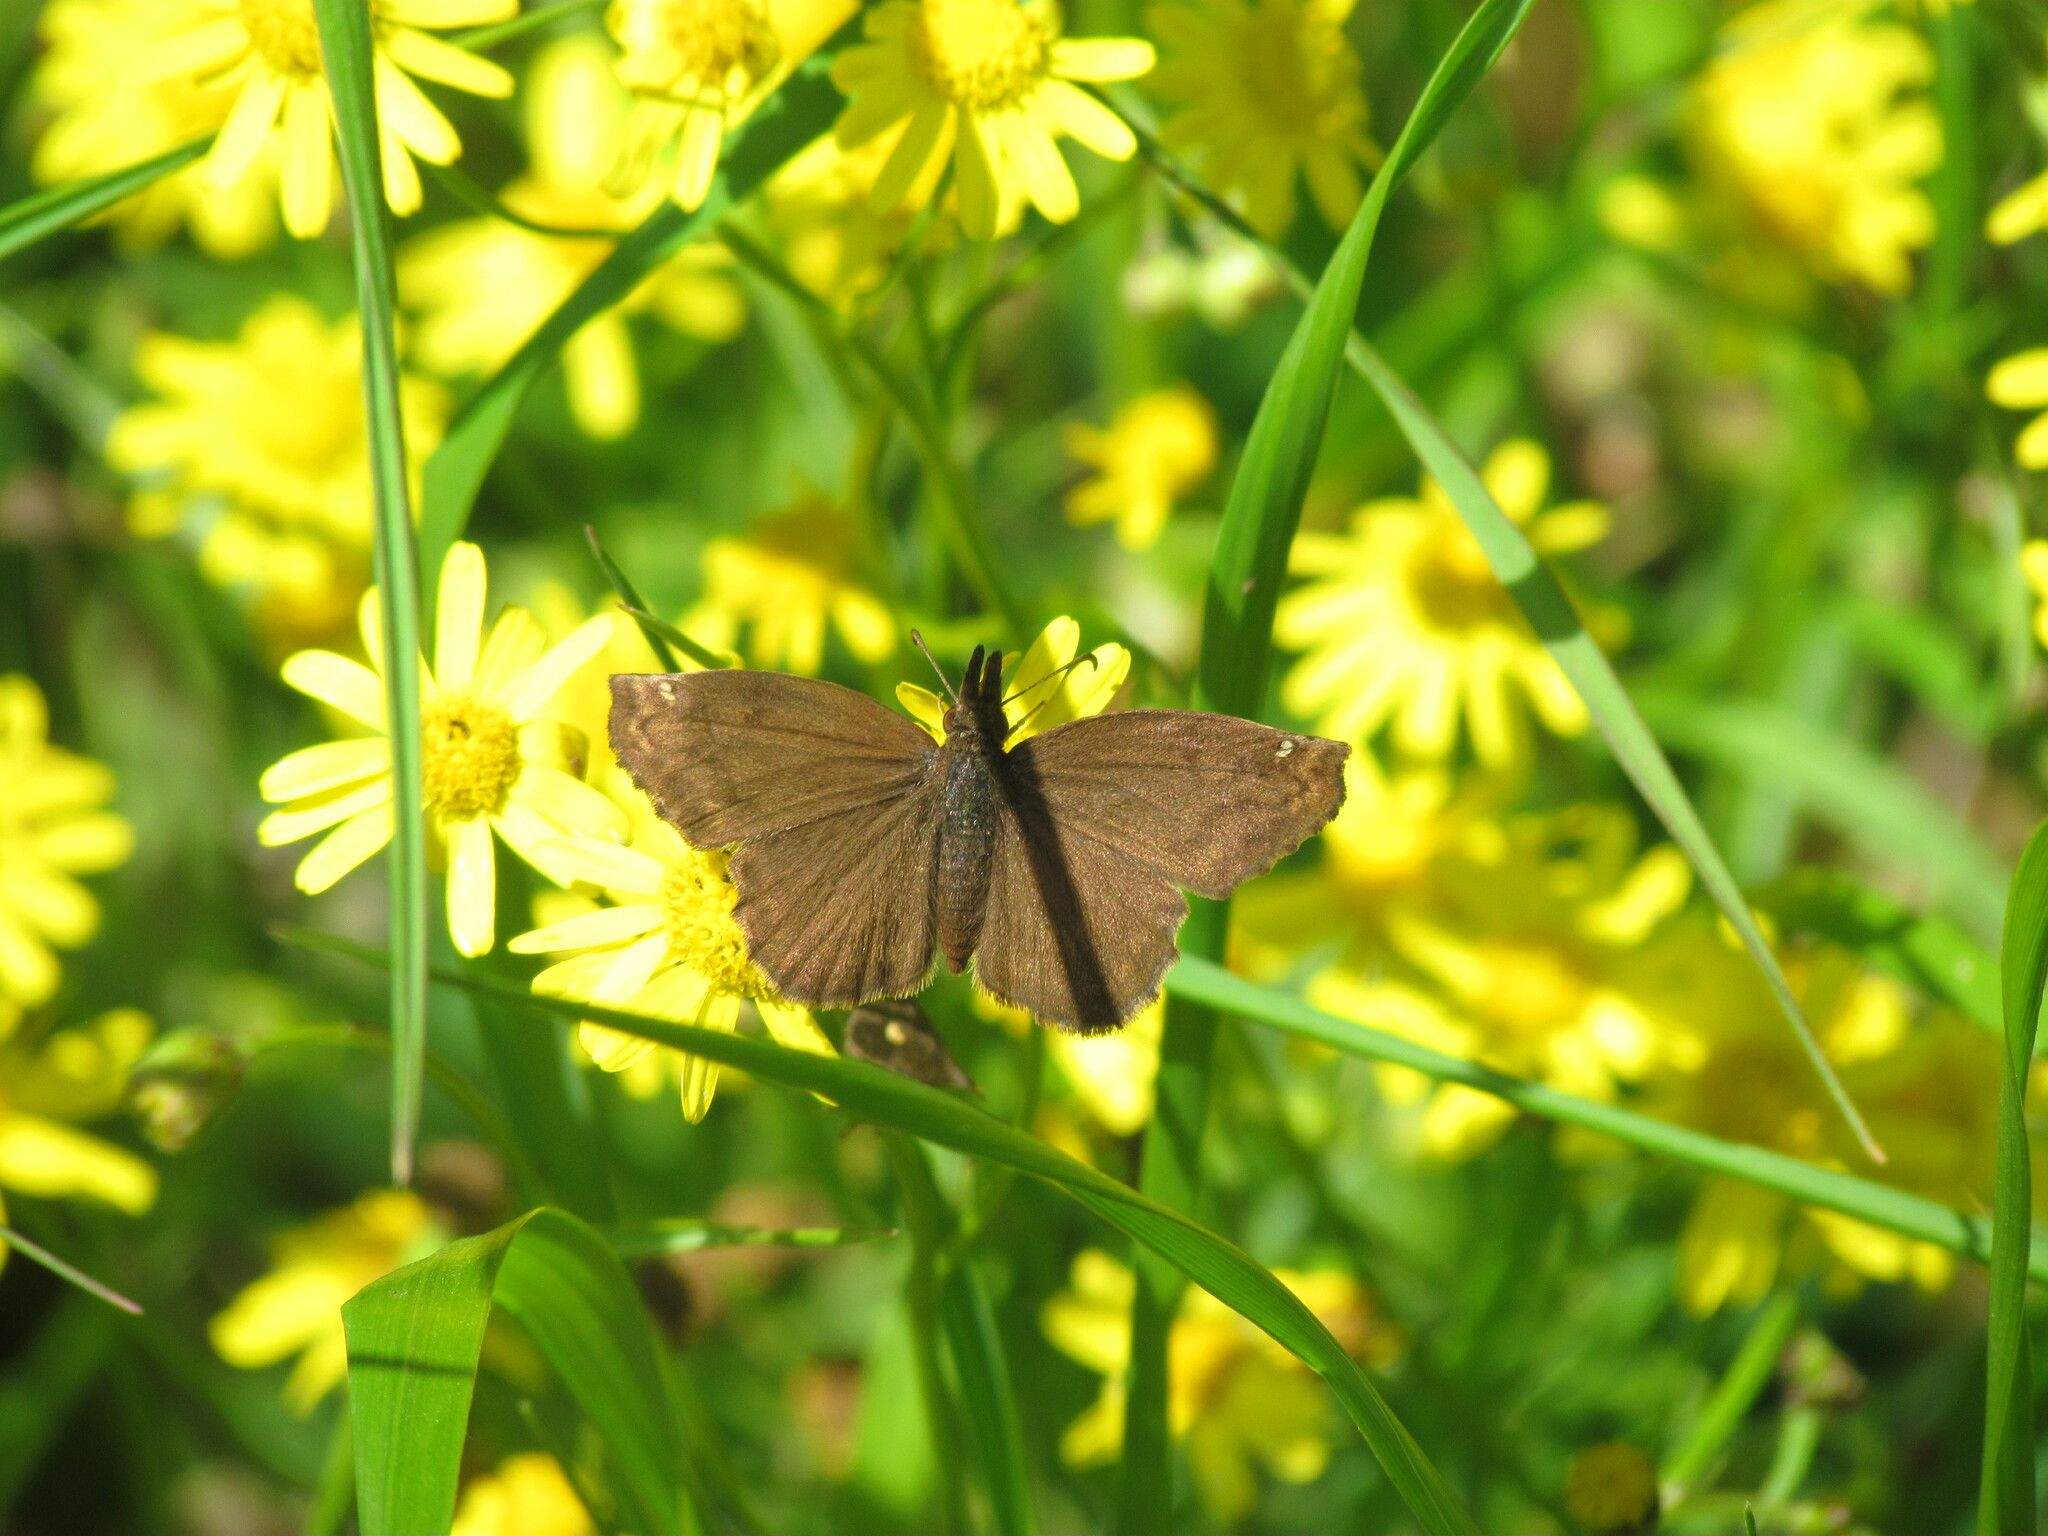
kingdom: Animalia
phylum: Arthropoda
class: Insecta
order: Lepidoptera
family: Hesperiidae
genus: Anisochoria
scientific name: Anisochoria sublimbata
